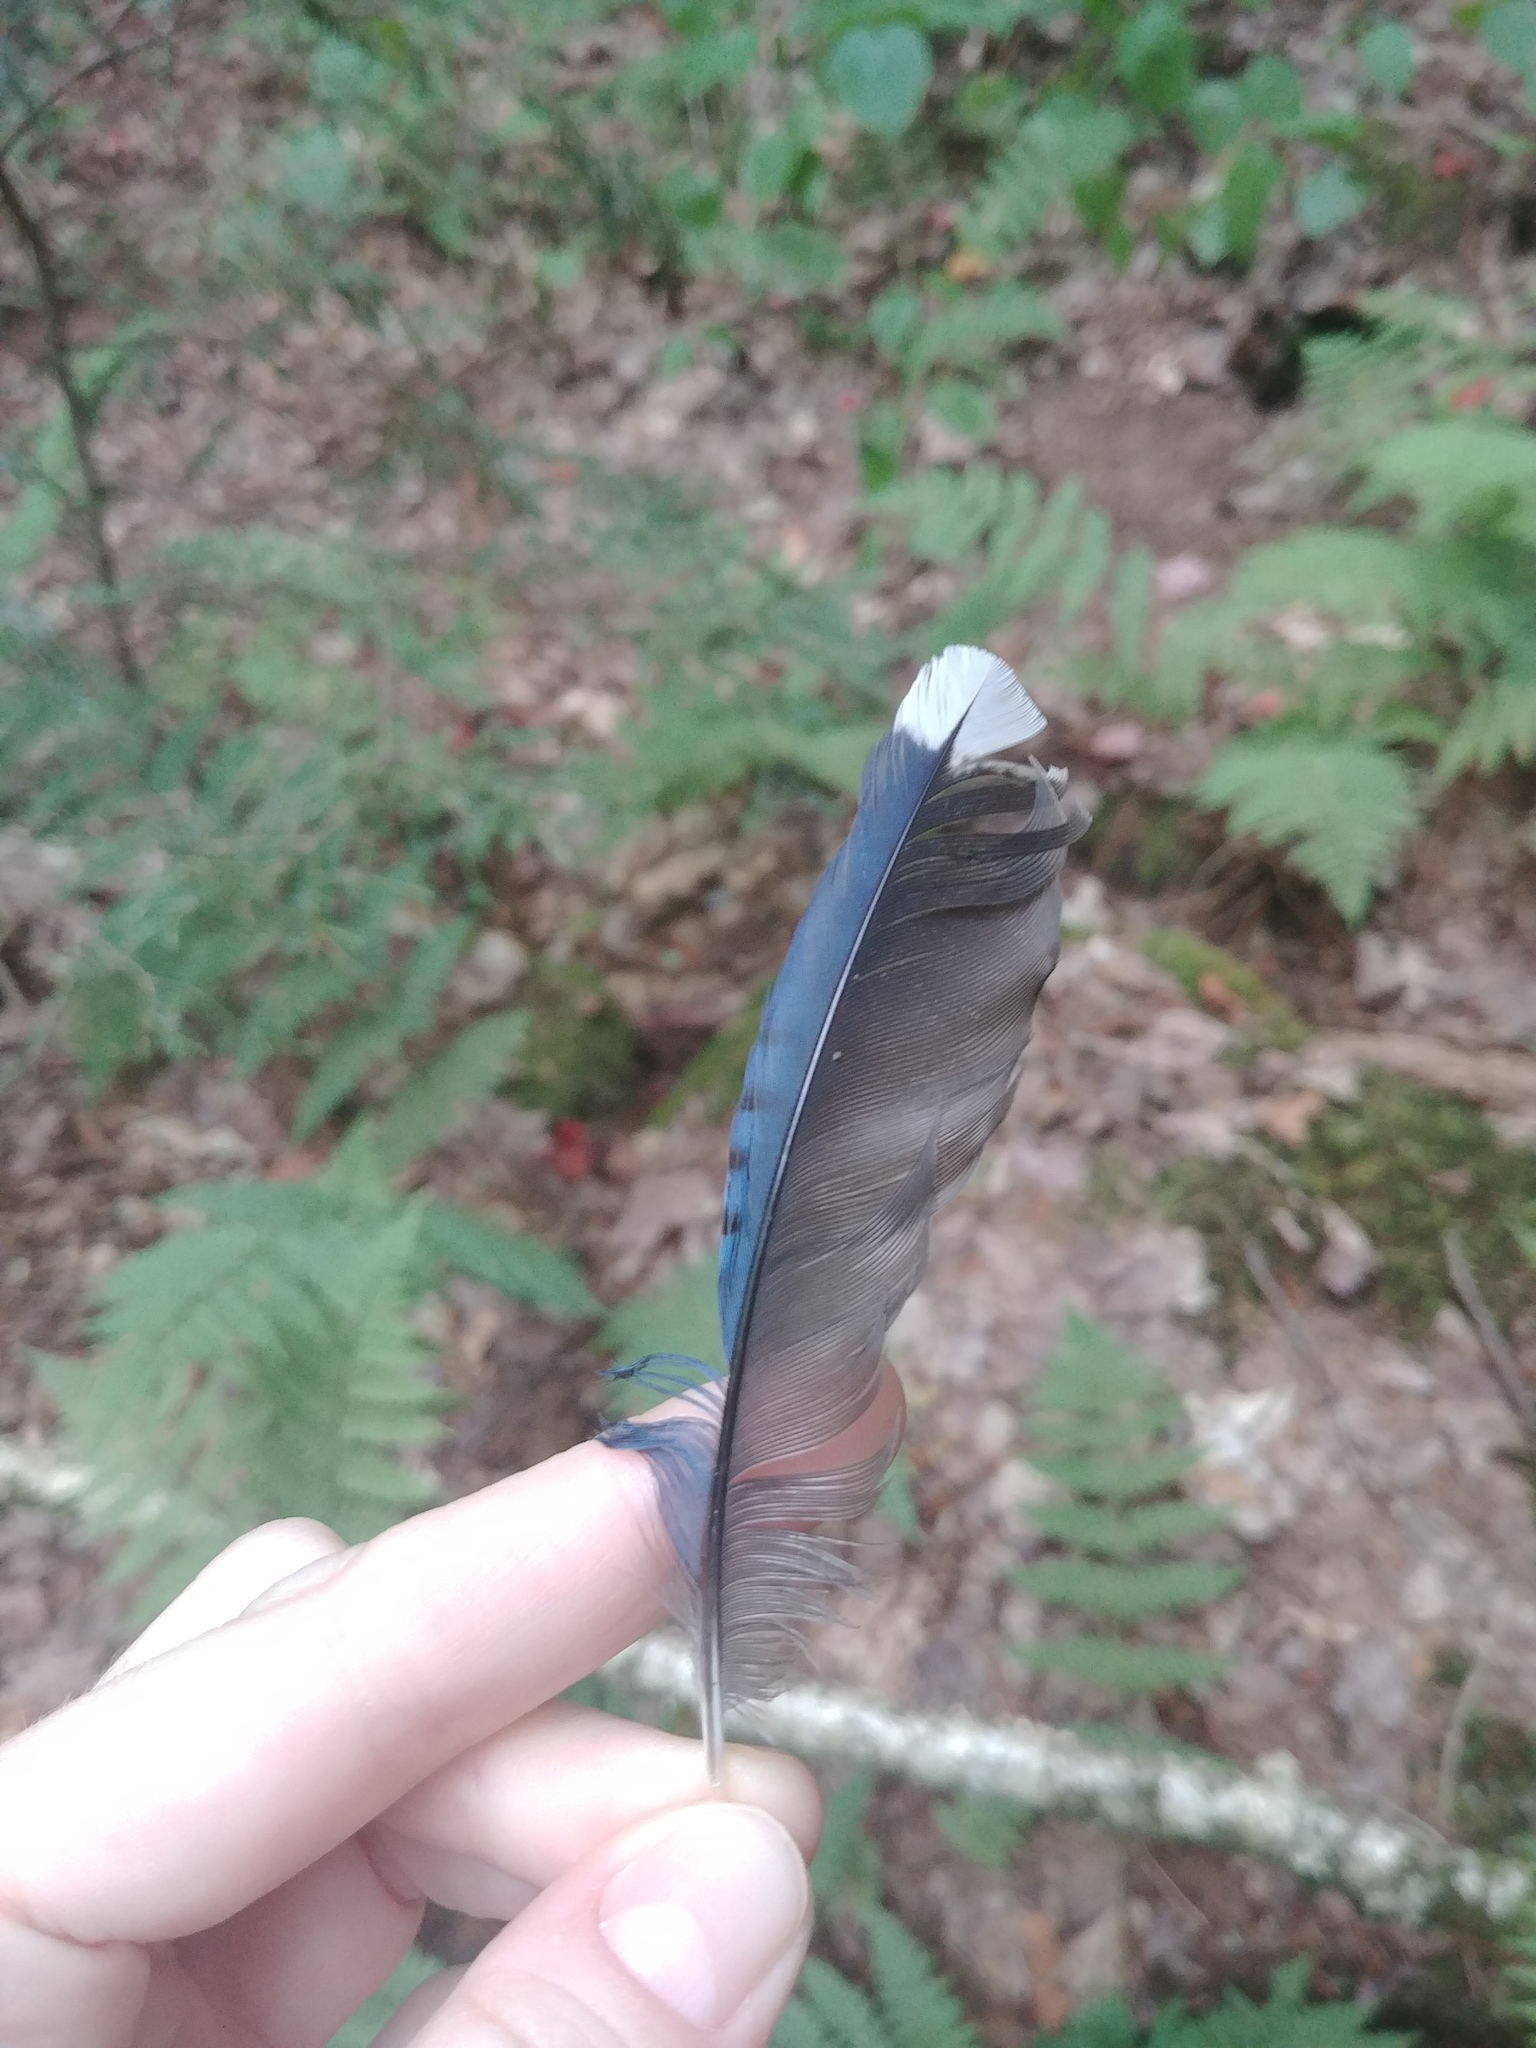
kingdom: Animalia
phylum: Chordata
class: Aves
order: Passeriformes
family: Corvidae
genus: Cyanocitta
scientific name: Cyanocitta cristata
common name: Blue jay
